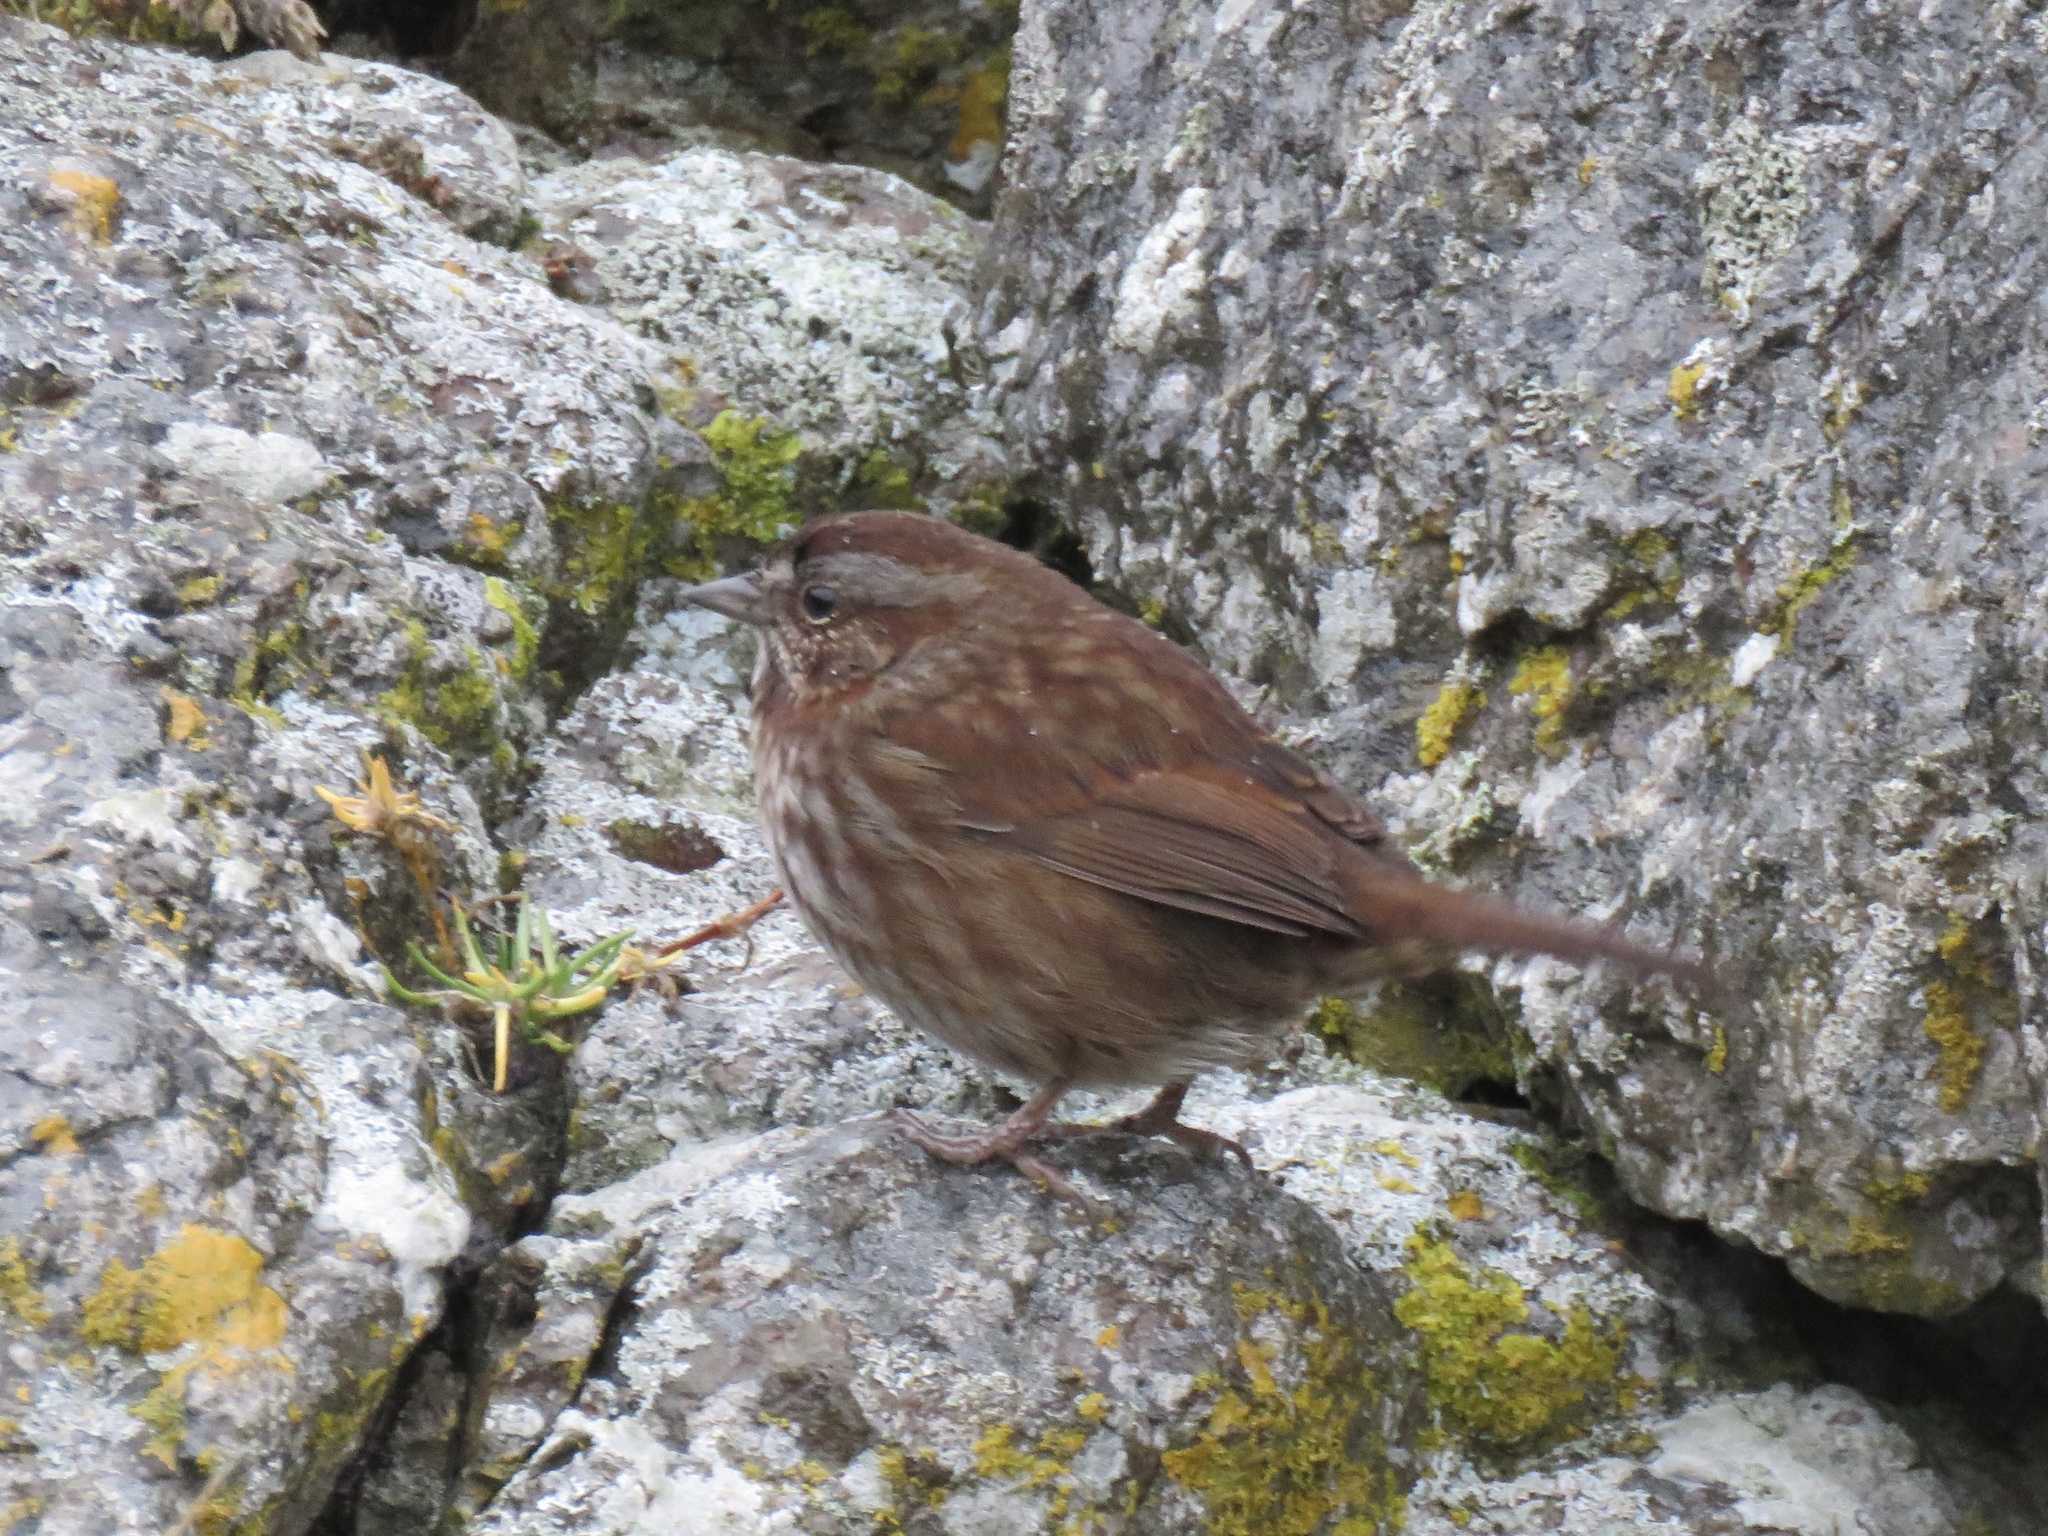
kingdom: Animalia
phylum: Chordata
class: Aves
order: Passeriformes
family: Passerellidae
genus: Melospiza
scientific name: Melospiza melodia
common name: Song sparrow
